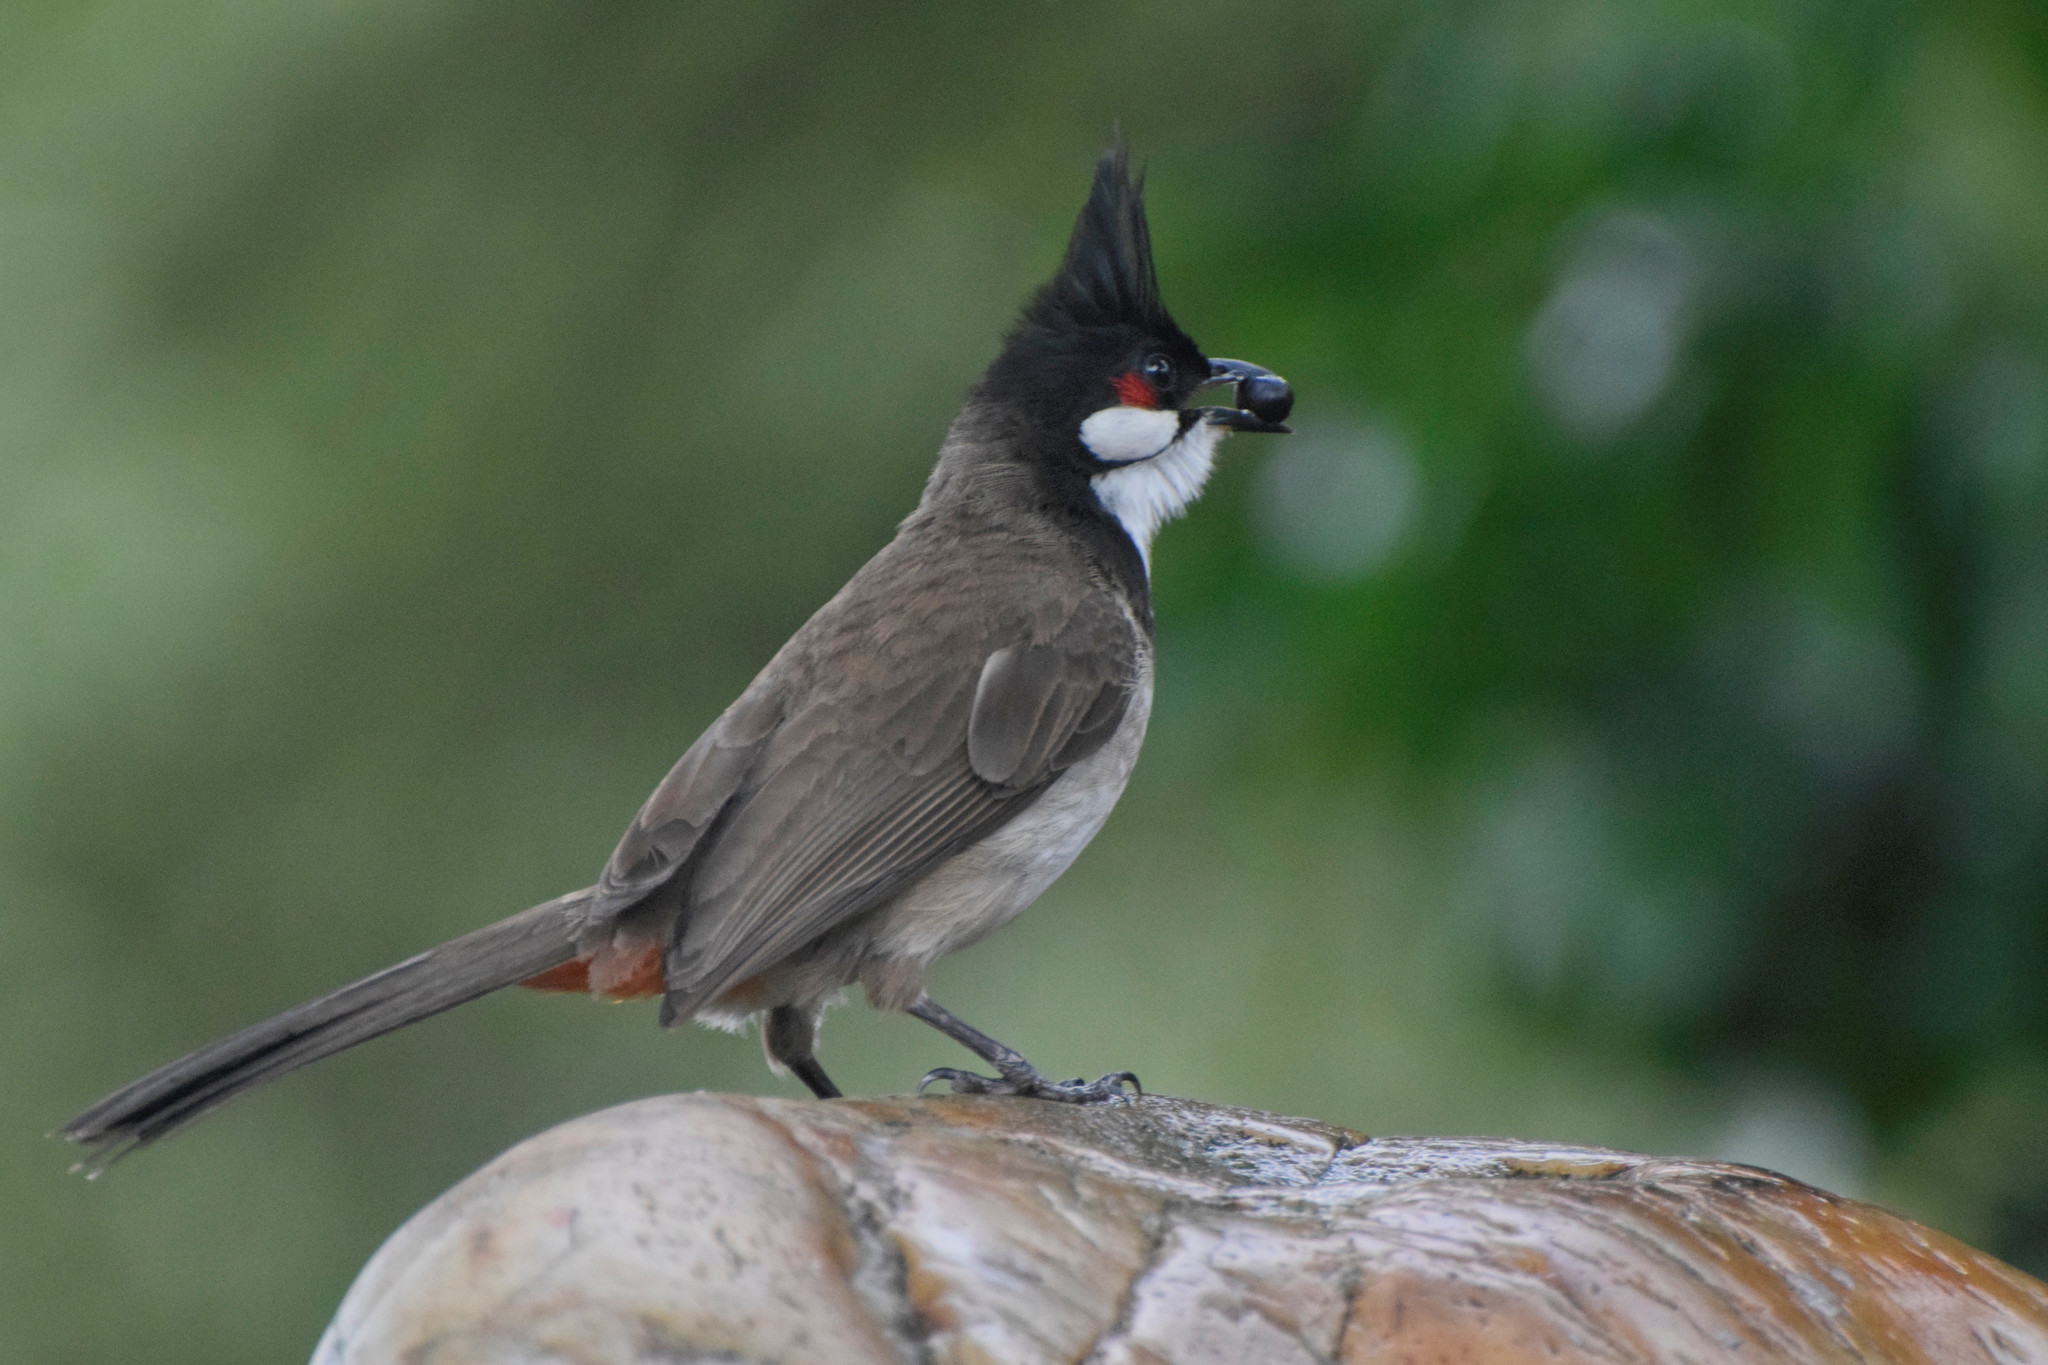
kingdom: Animalia
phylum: Chordata
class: Aves
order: Passeriformes
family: Pycnonotidae
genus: Pycnonotus
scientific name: Pycnonotus jocosus
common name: Red-whiskered bulbul
